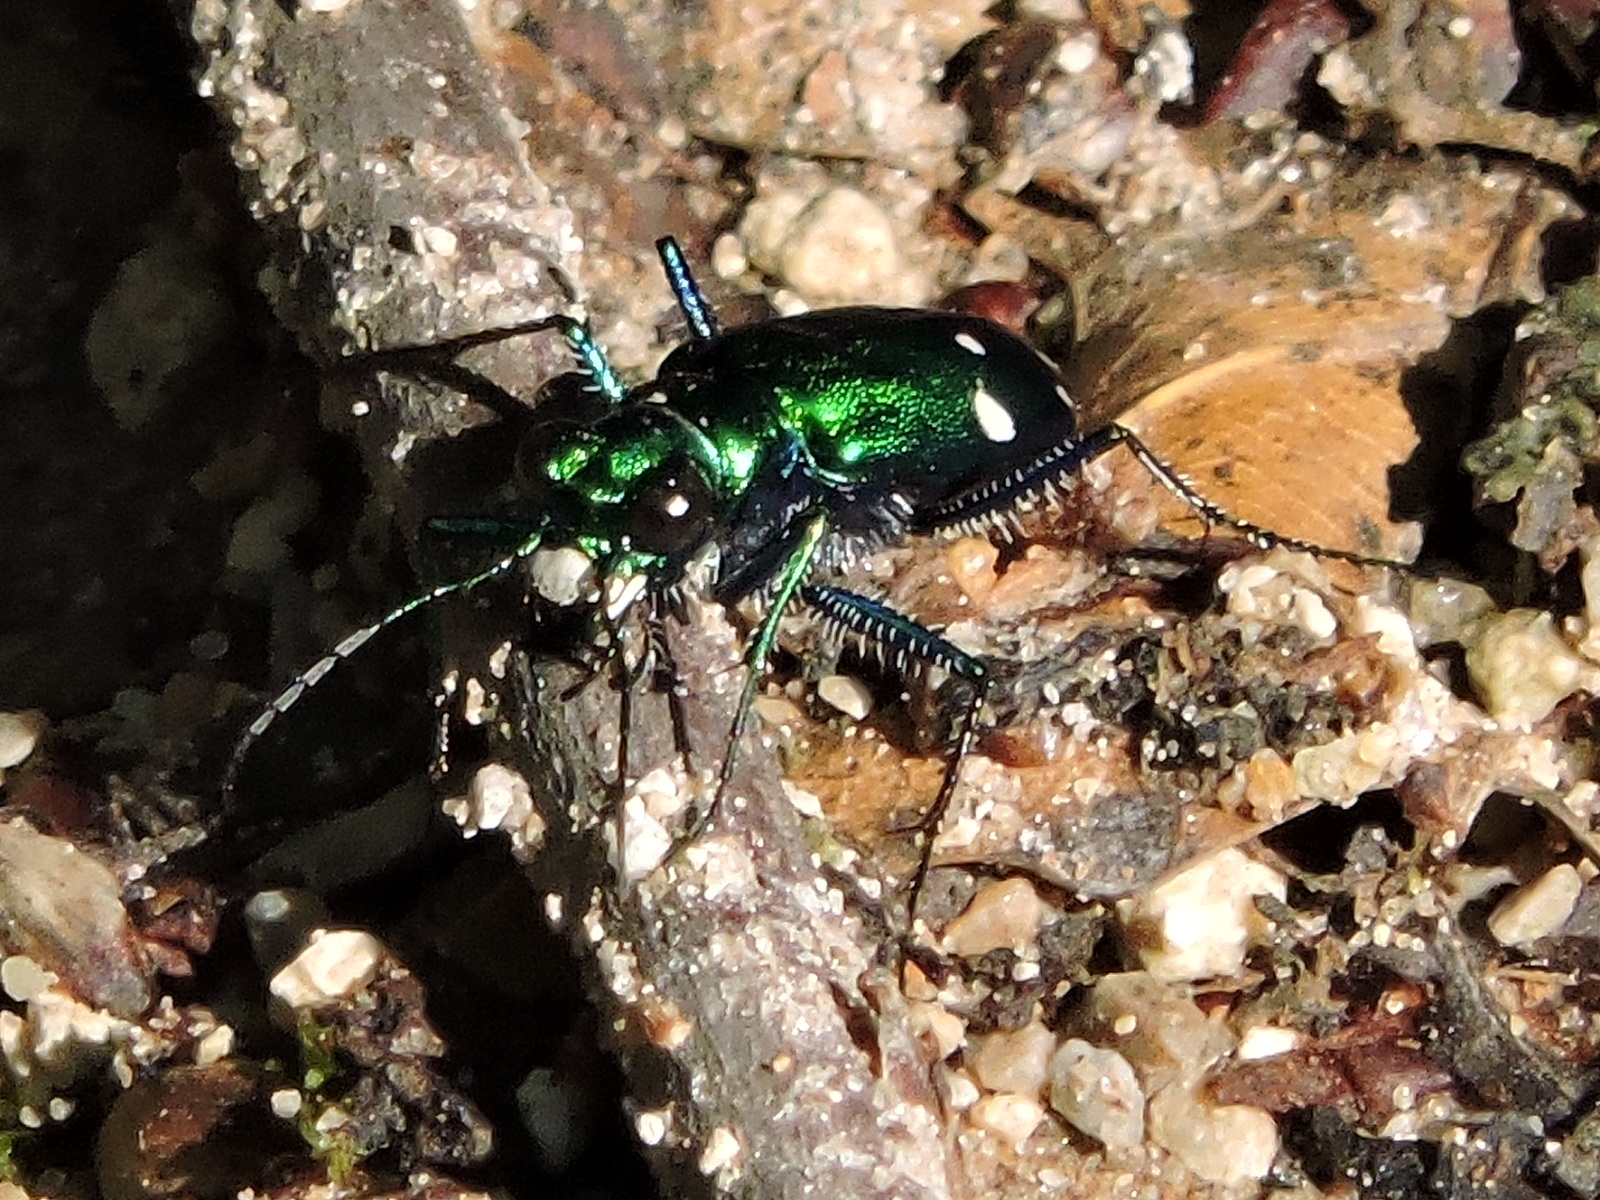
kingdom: Animalia
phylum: Arthropoda
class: Insecta
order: Coleoptera
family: Carabidae
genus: Cicindela
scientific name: Cicindela sexguttata
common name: Six-spotted tiger beetle
